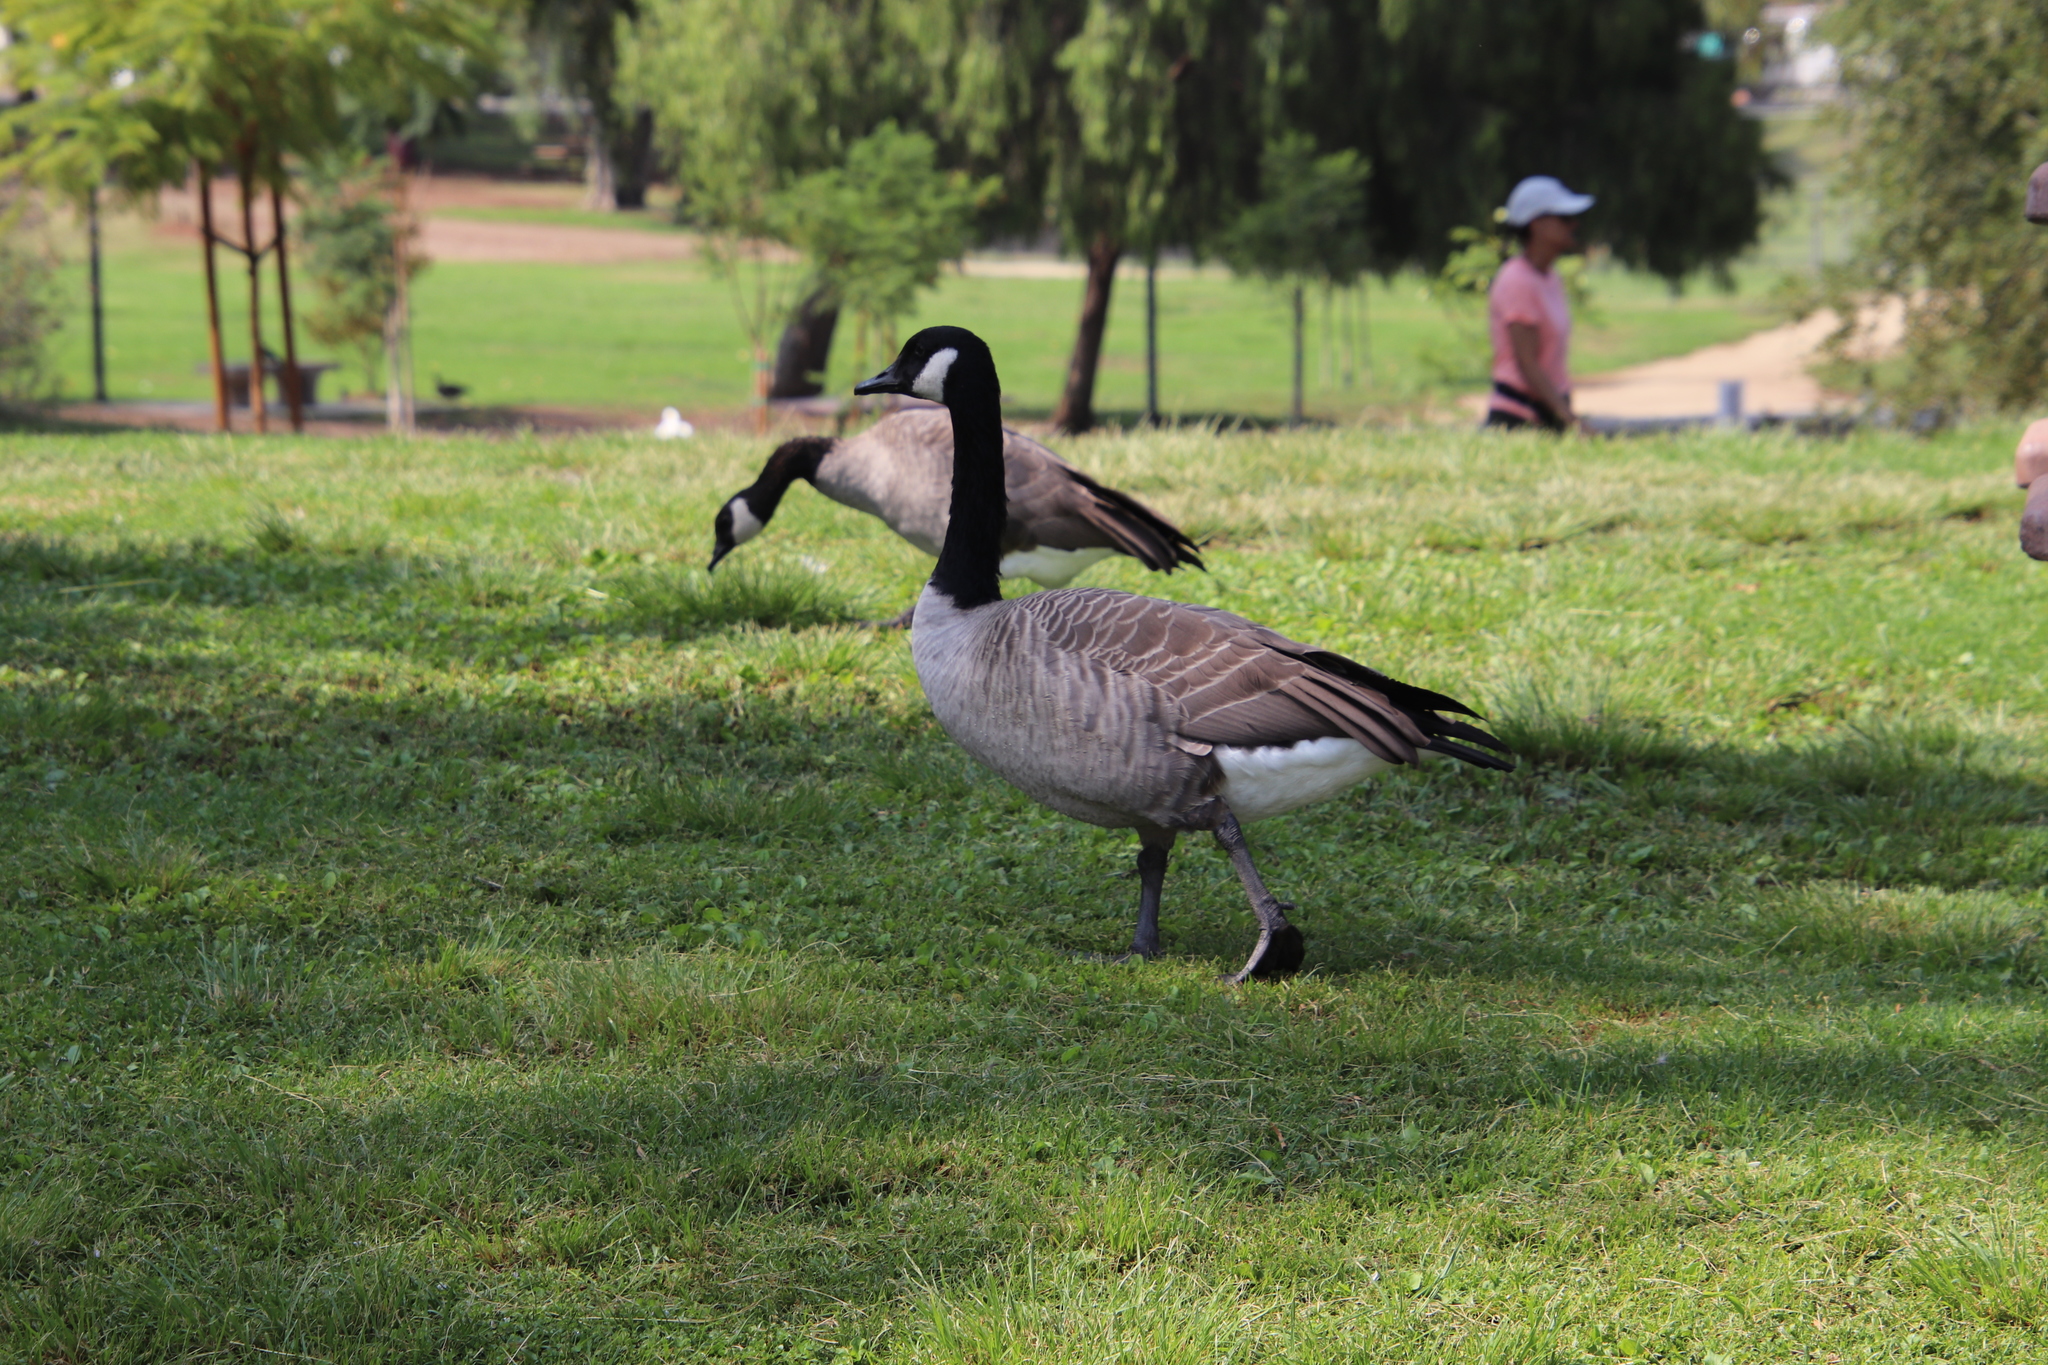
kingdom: Animalia
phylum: Chordata
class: Aves
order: Anseriformes
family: Anatidae
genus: Branta
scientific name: Branta canadensis
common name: Canada goose
